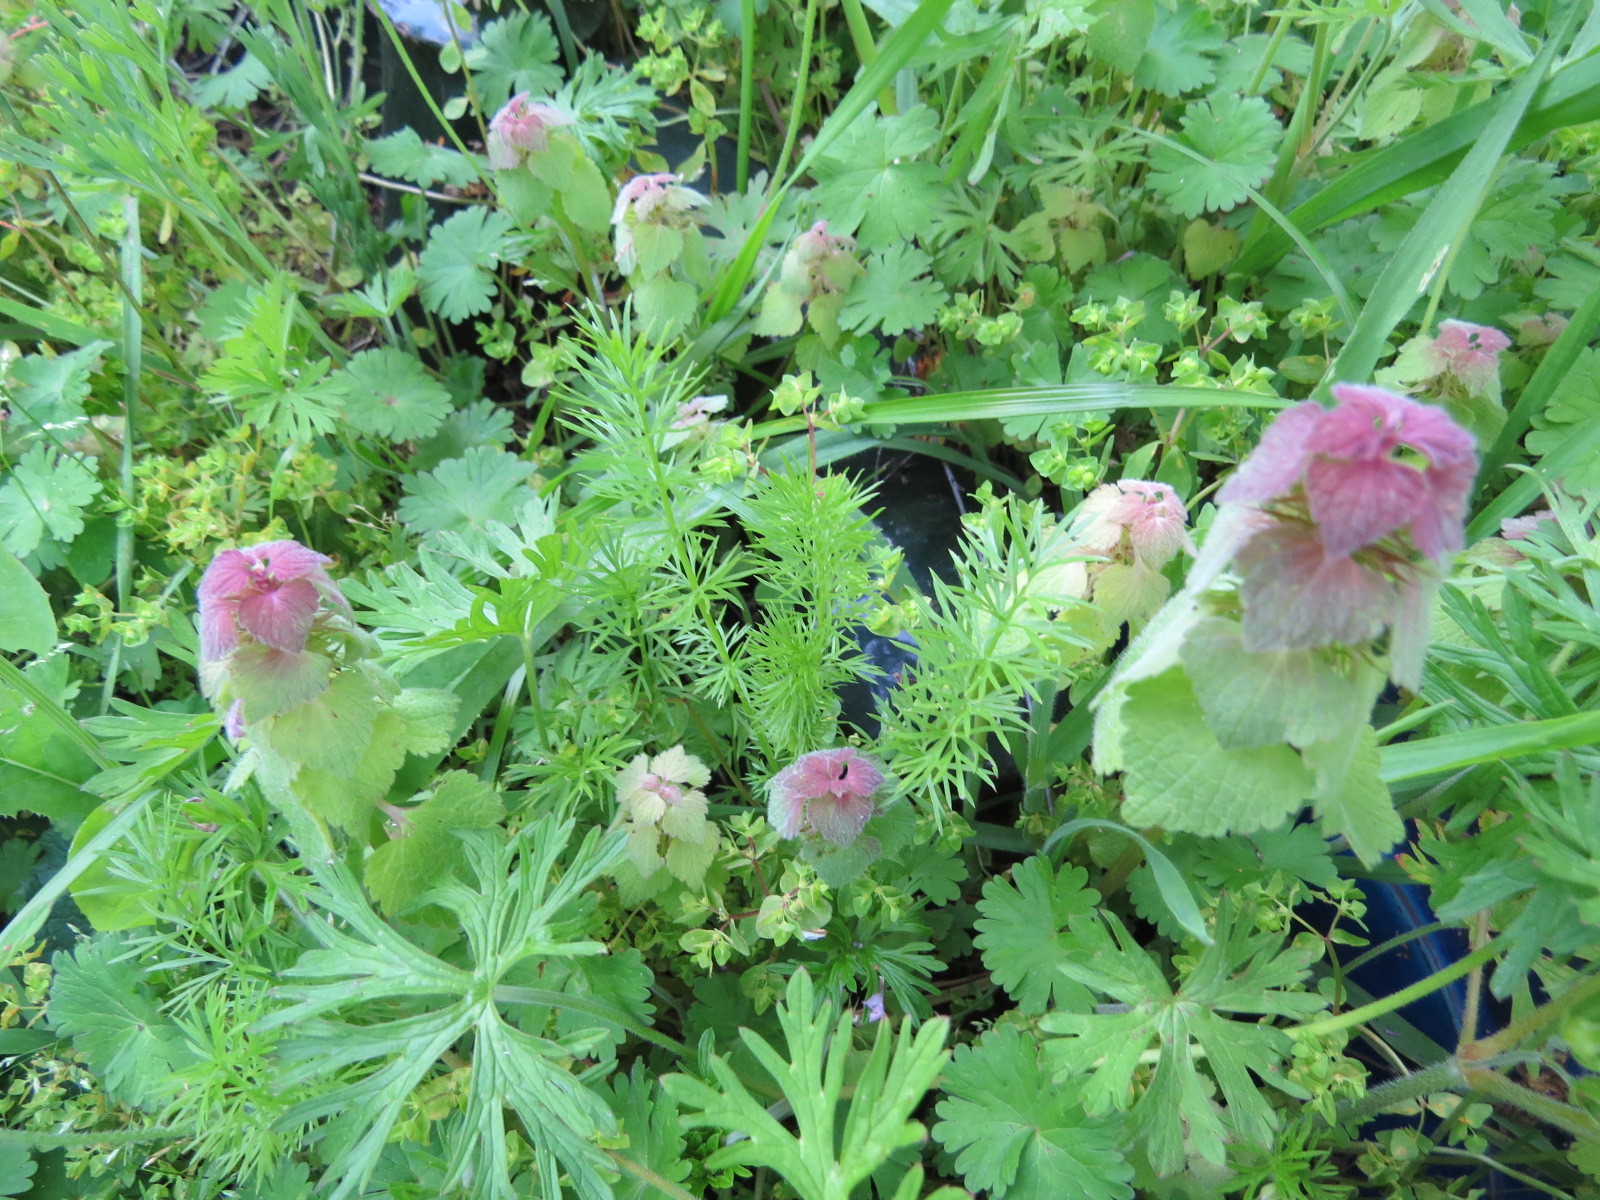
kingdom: Plantae
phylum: Tracheophyta
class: Magnoliopsida
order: Lamiales
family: Lamiaceae
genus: Lamium
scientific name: Lamium purpureum
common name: Red dead-nettle
